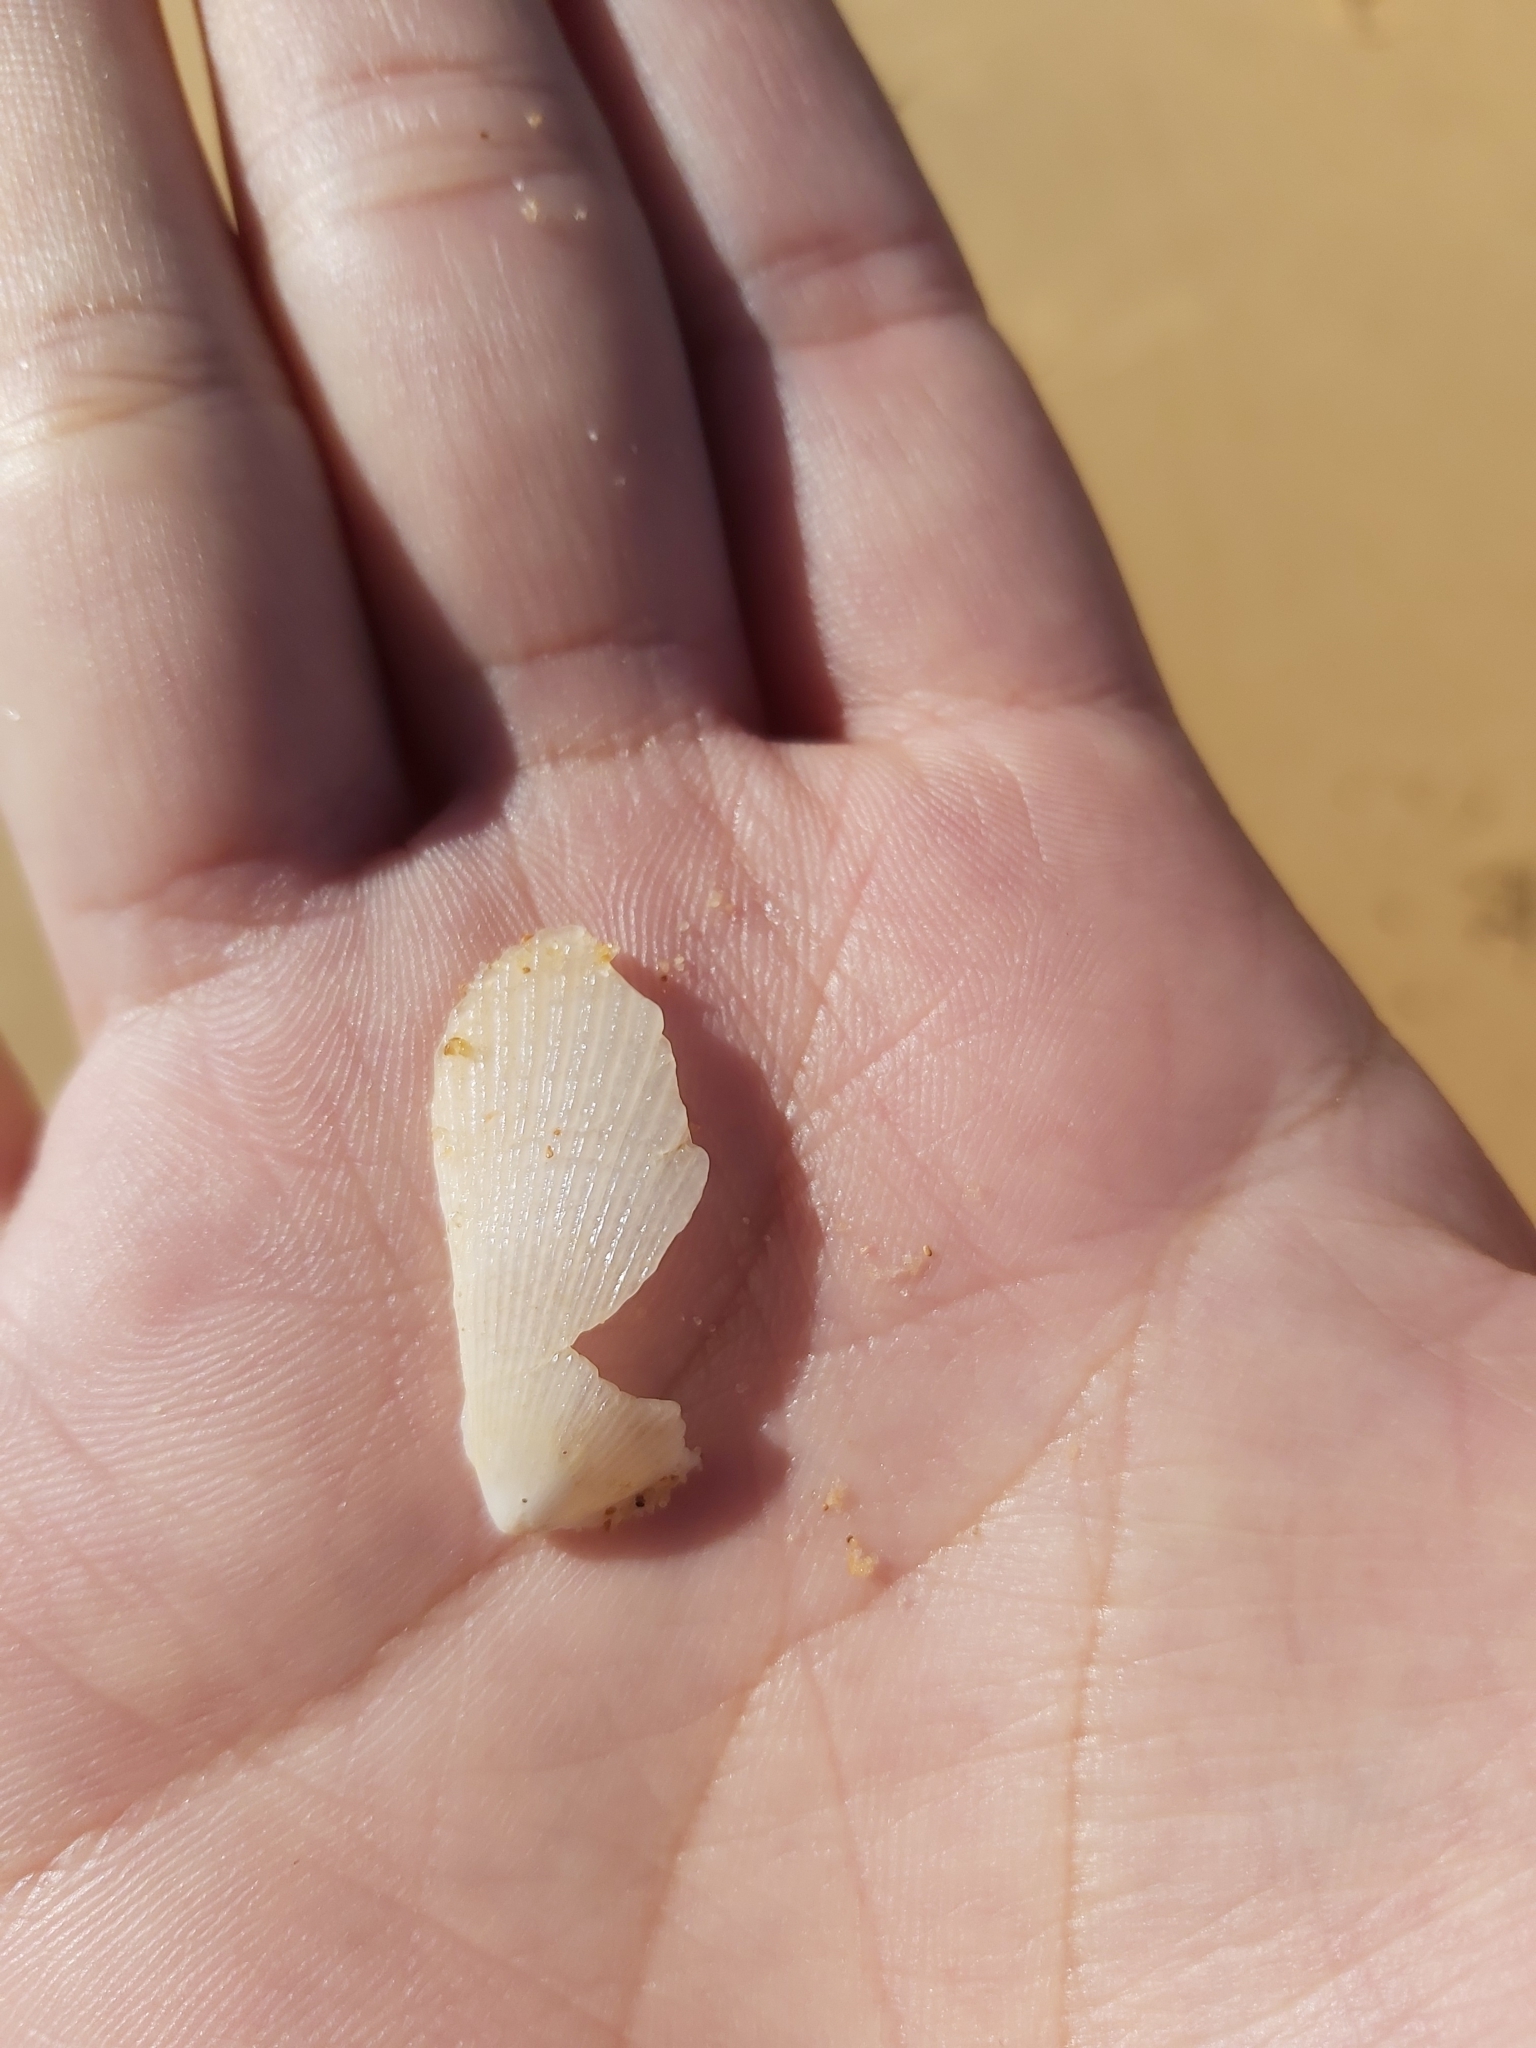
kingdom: Animalia
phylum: Mollusca
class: Bivalvia
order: Limida
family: Limidae
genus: Lima
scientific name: Lima nimbifer
